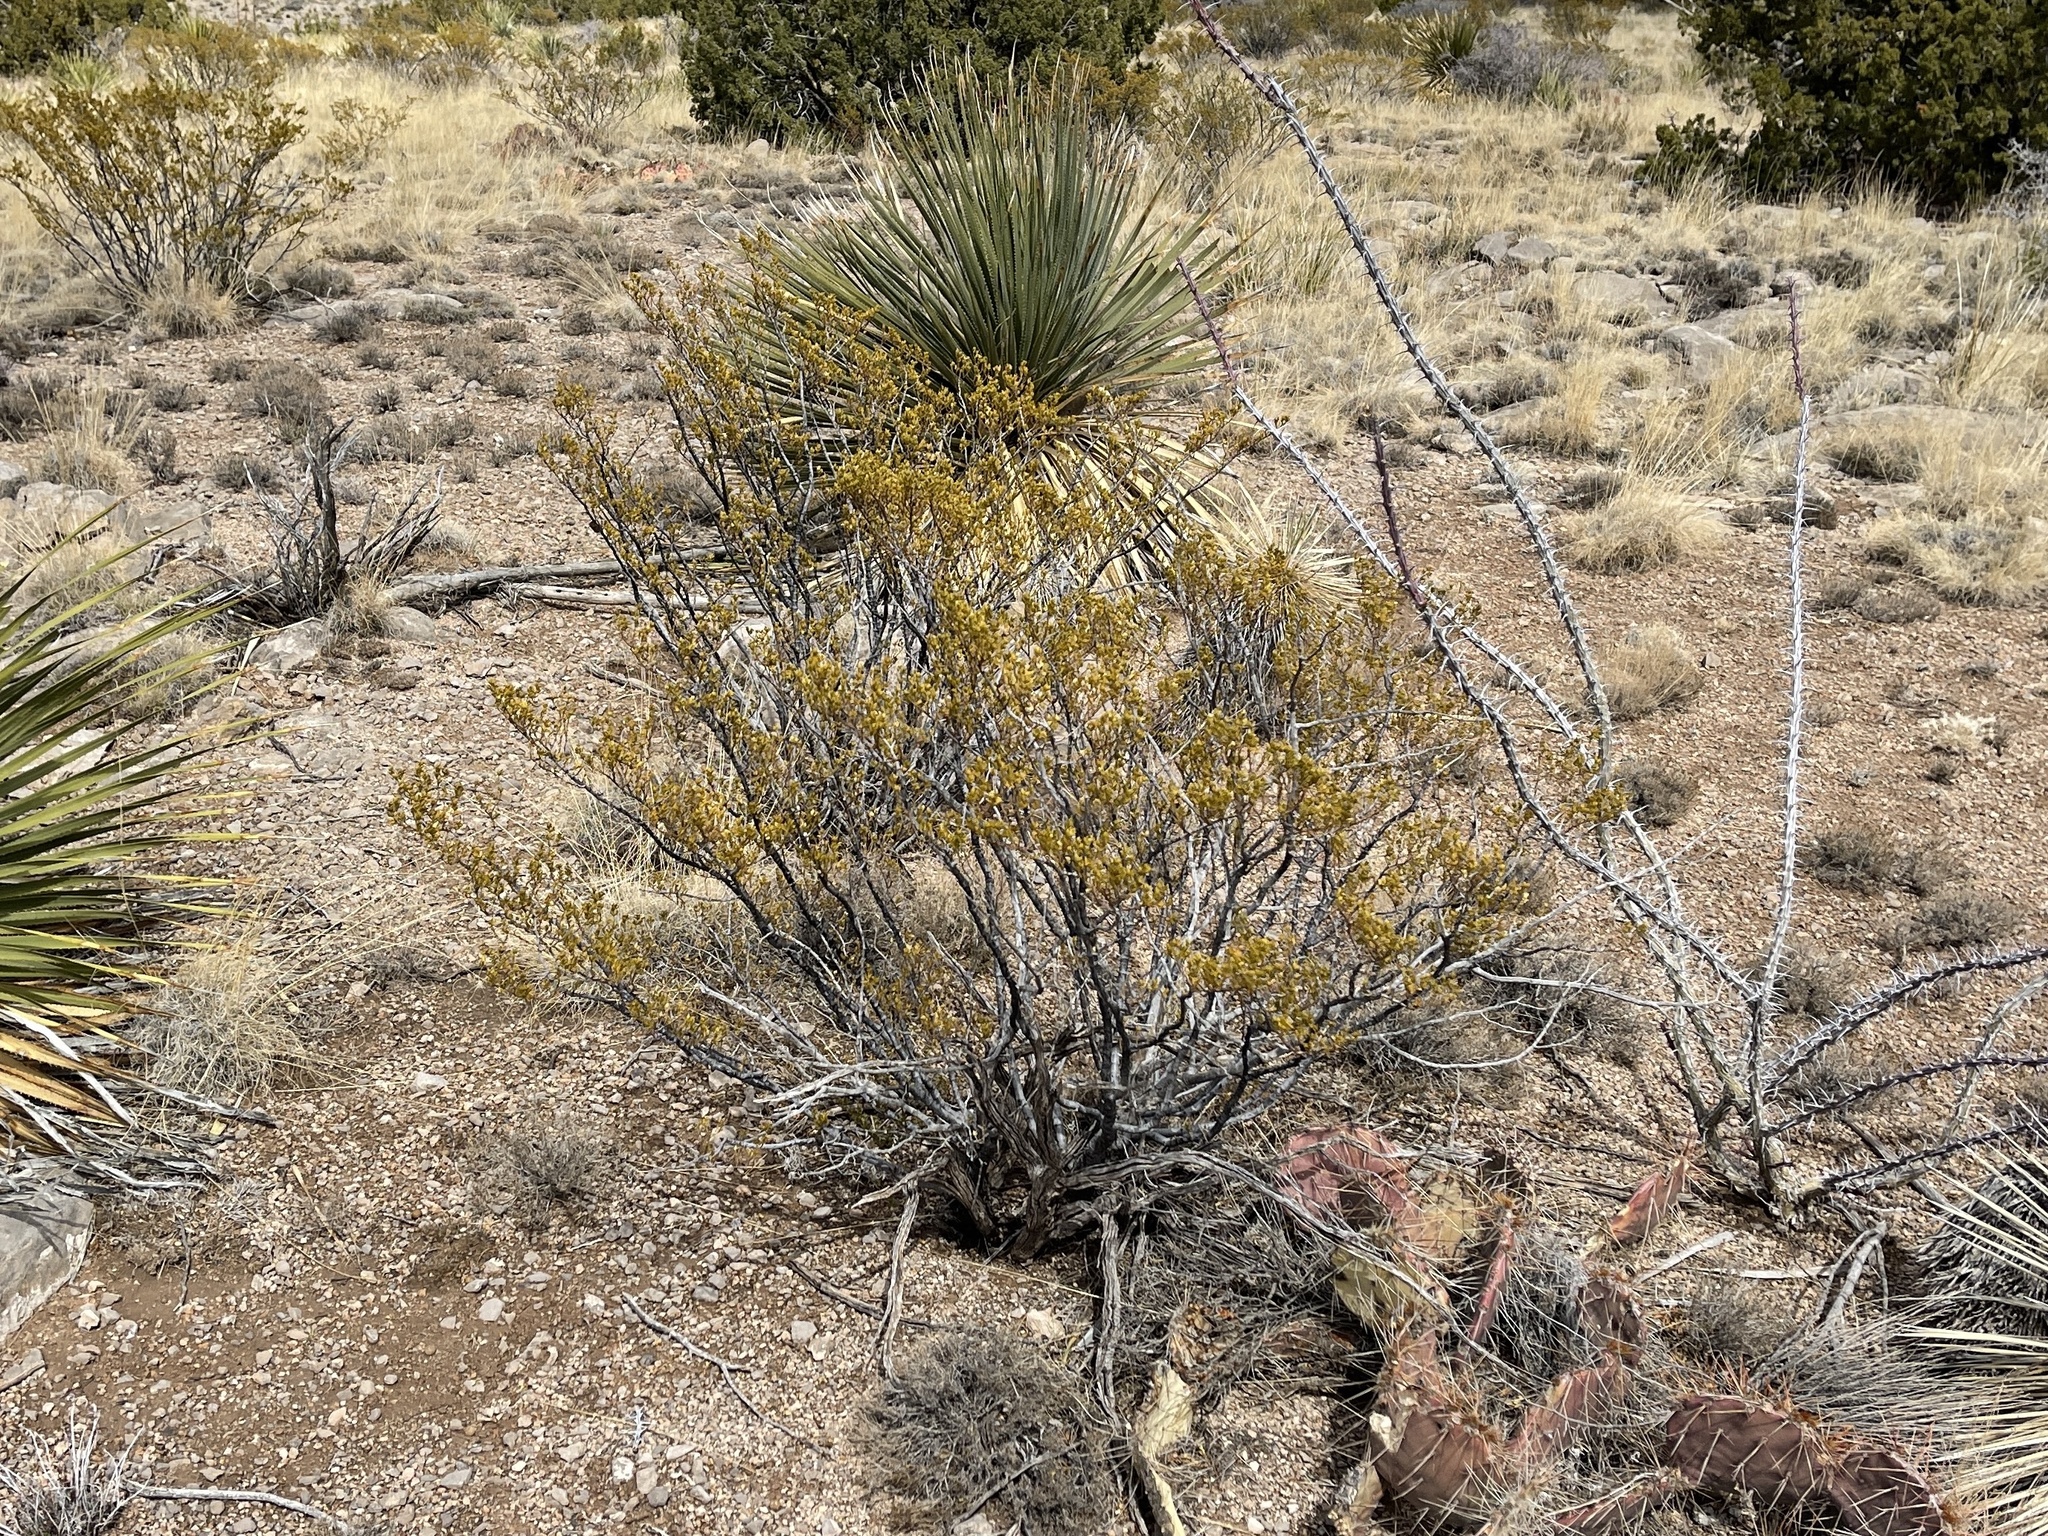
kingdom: Plantae
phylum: Tracheophyta
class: Magnoliopsida
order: Zygophyllales
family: Zygophyllaceae
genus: Larrea
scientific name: Larrea tridentata
